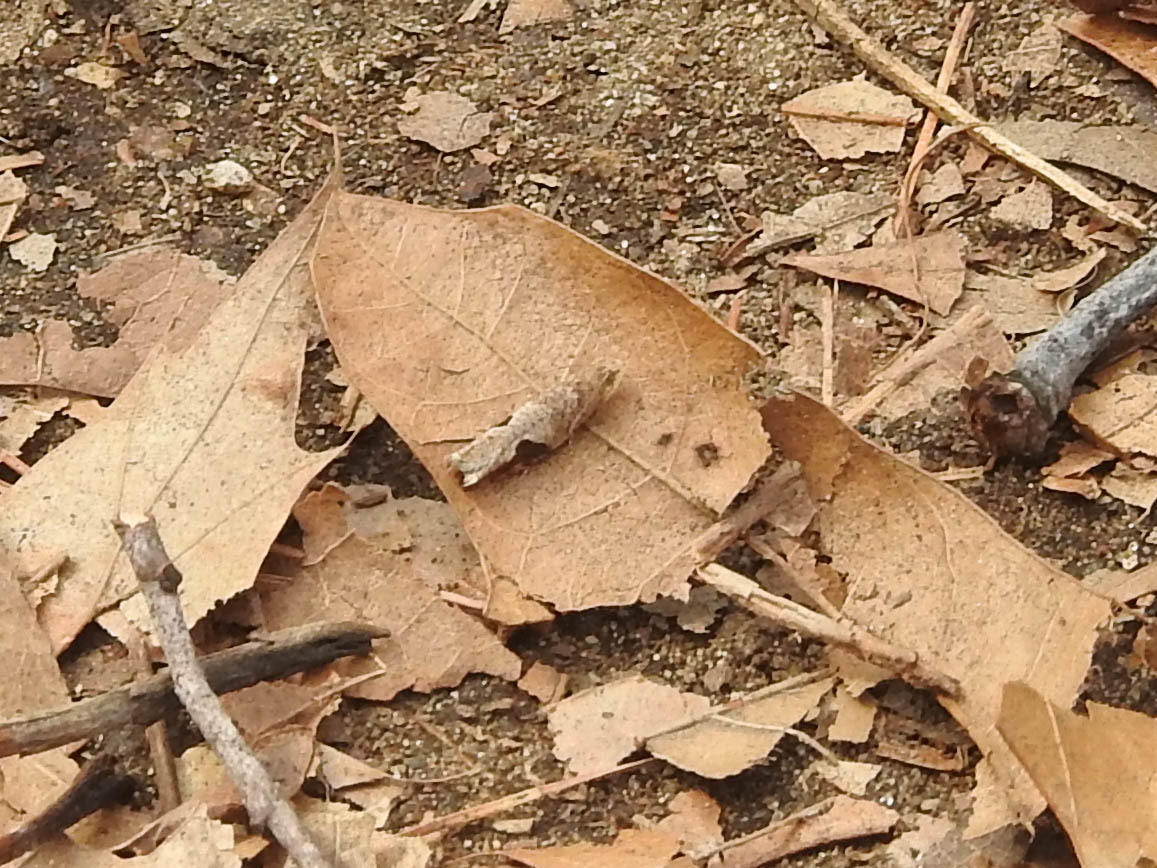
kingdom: Animalia
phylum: Arthropoda
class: Insecta
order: Lepidoptera
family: Tortricidae
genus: Pseudexentera
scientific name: Pseudexentera virginiana
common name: Virginia pseudexentera moth
